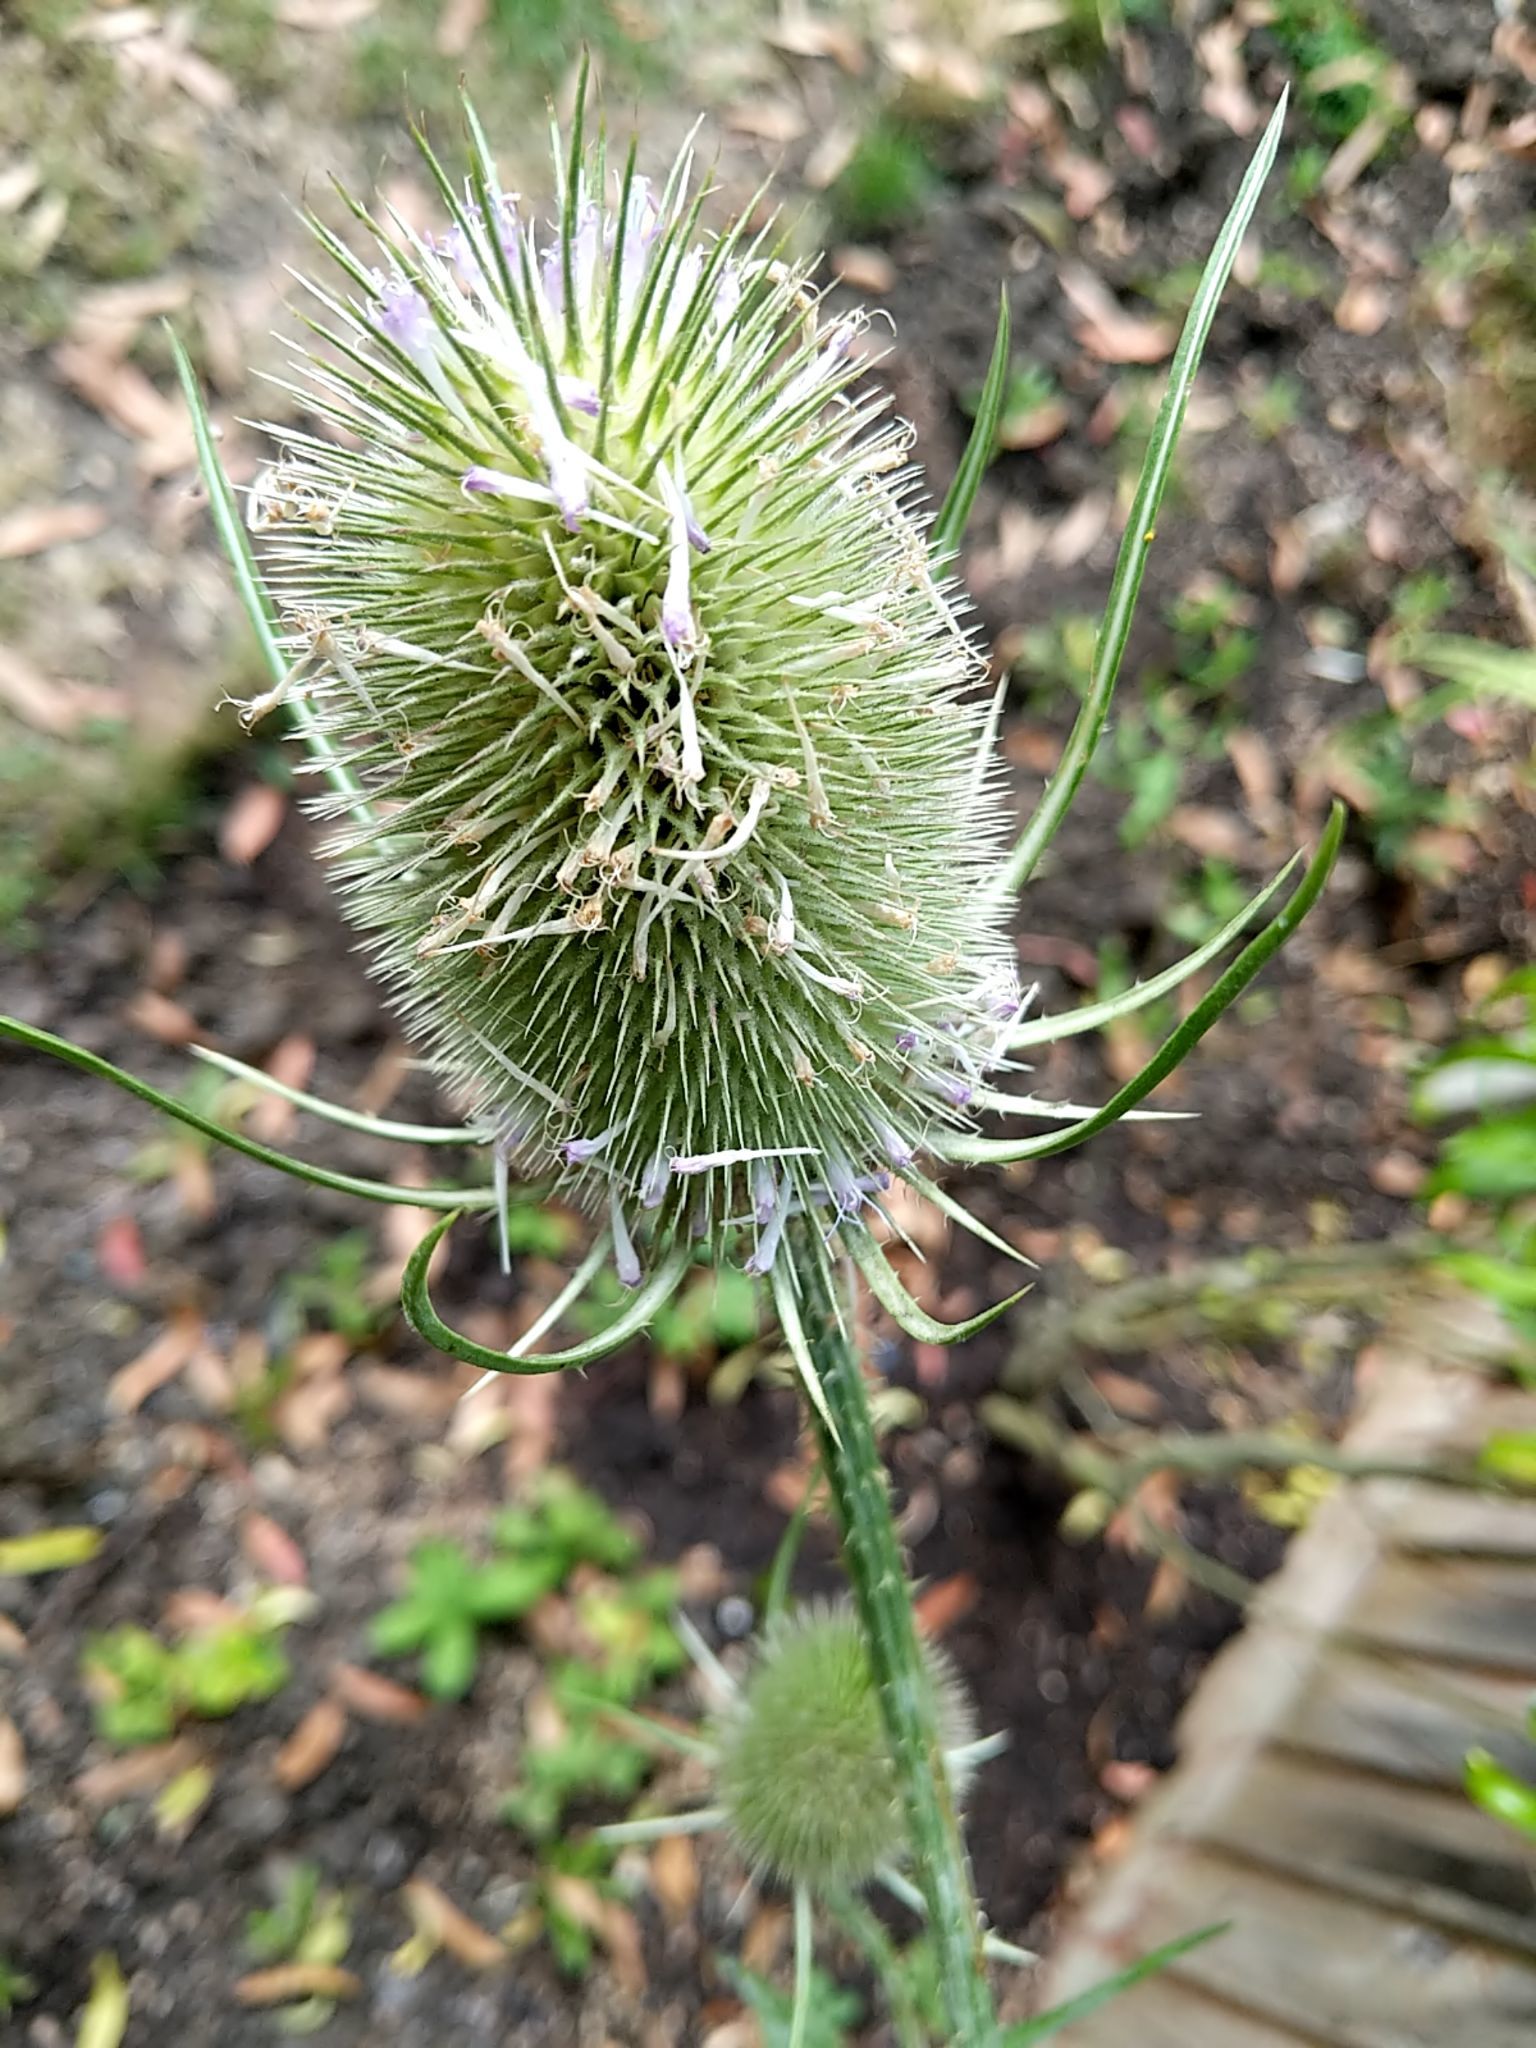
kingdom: Plantae
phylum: Tracheophyta
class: Magnoliopsida
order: Dipsacales
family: Caprifoliaceae
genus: Dipsacus
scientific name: Dipsacus fullonum
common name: Teasel
